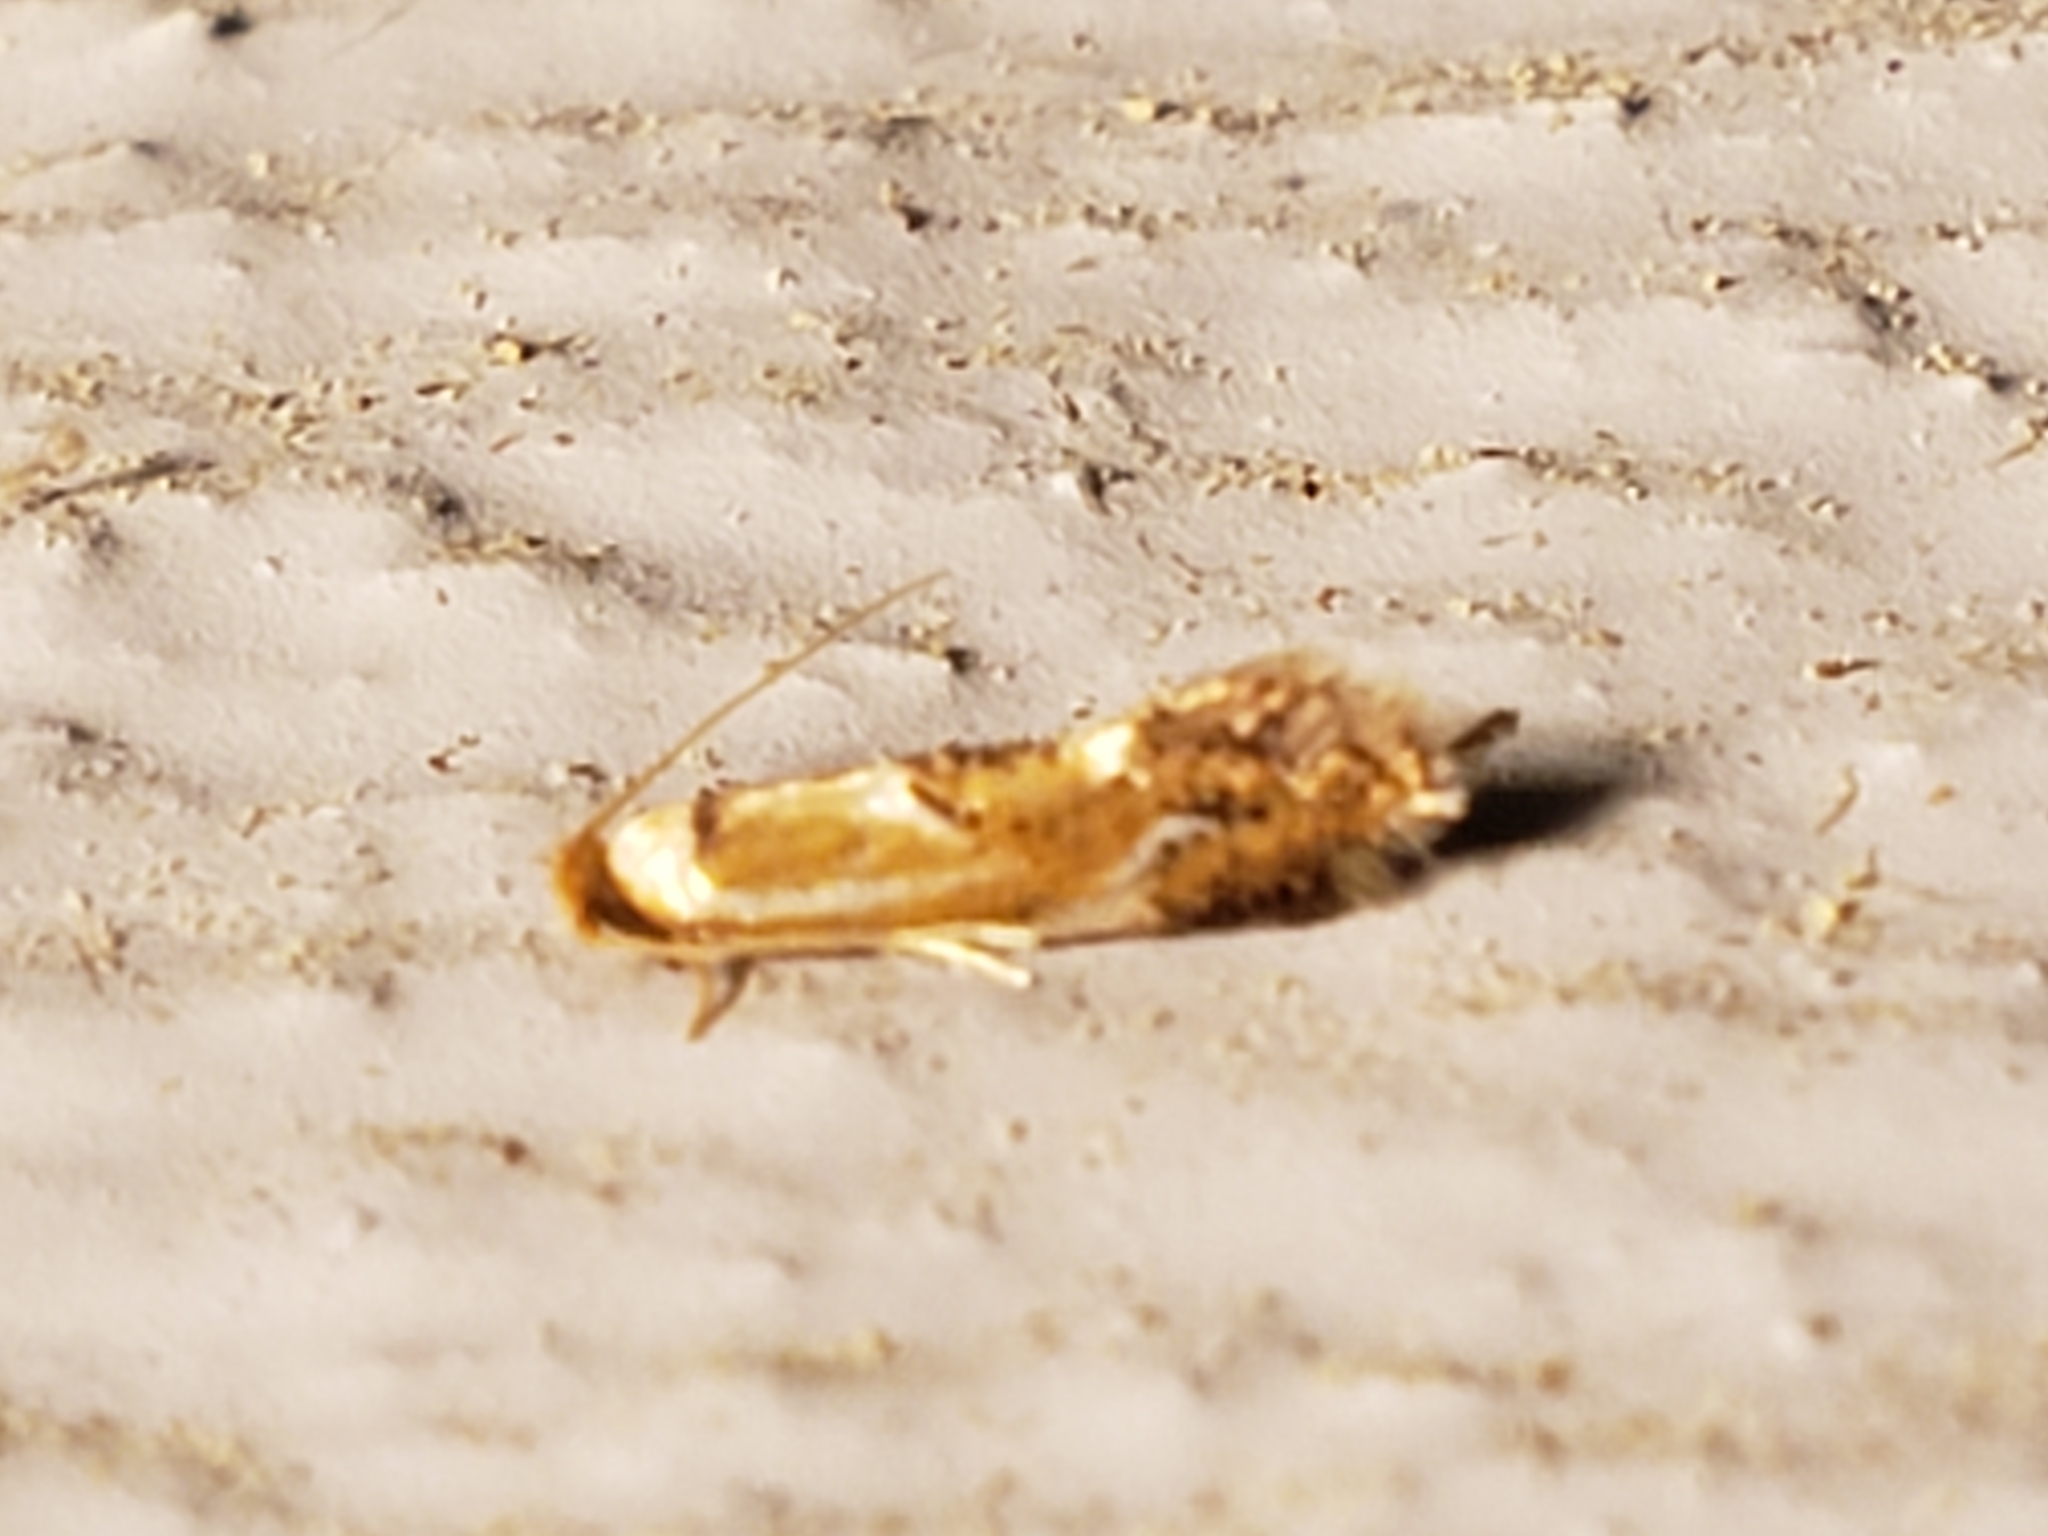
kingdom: Animalia
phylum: Arthropoda
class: Insecta
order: Lepidoptera
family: Lyonetiidae
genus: Philonome
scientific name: Philonome clemensella
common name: Clemen's philonome moth
